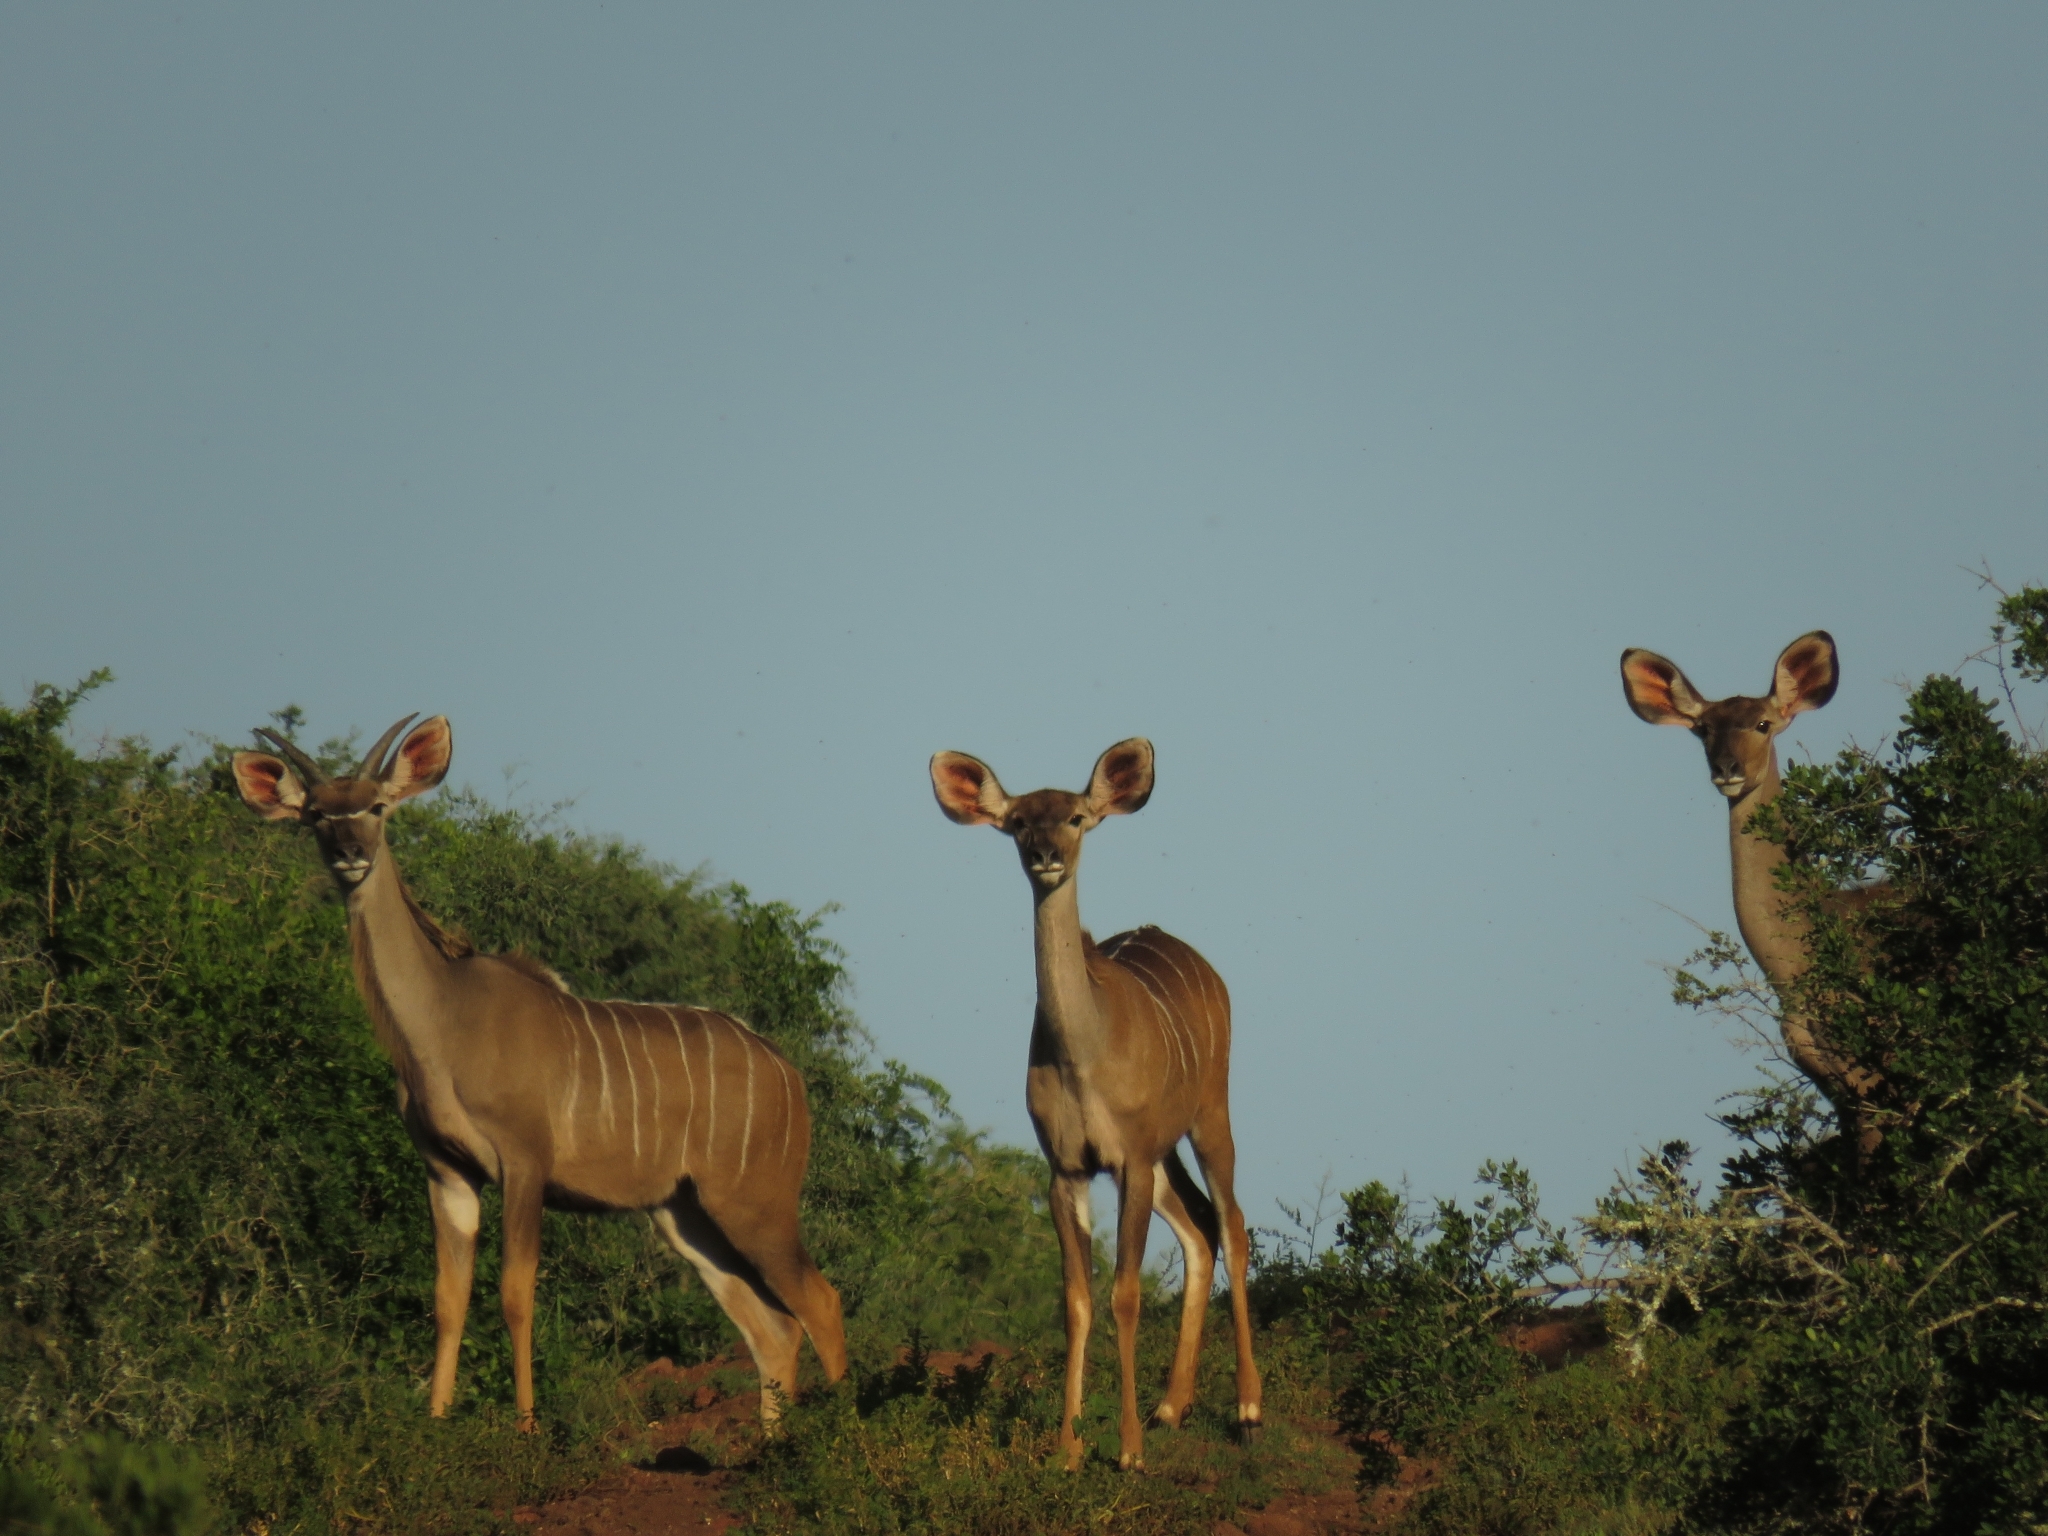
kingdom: Animalia
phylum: Chordata
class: Mammalia
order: Artiodactyla
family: Bovidae
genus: Tragelaphus
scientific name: Tragelaphus strepsiceros
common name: Greater kudu
